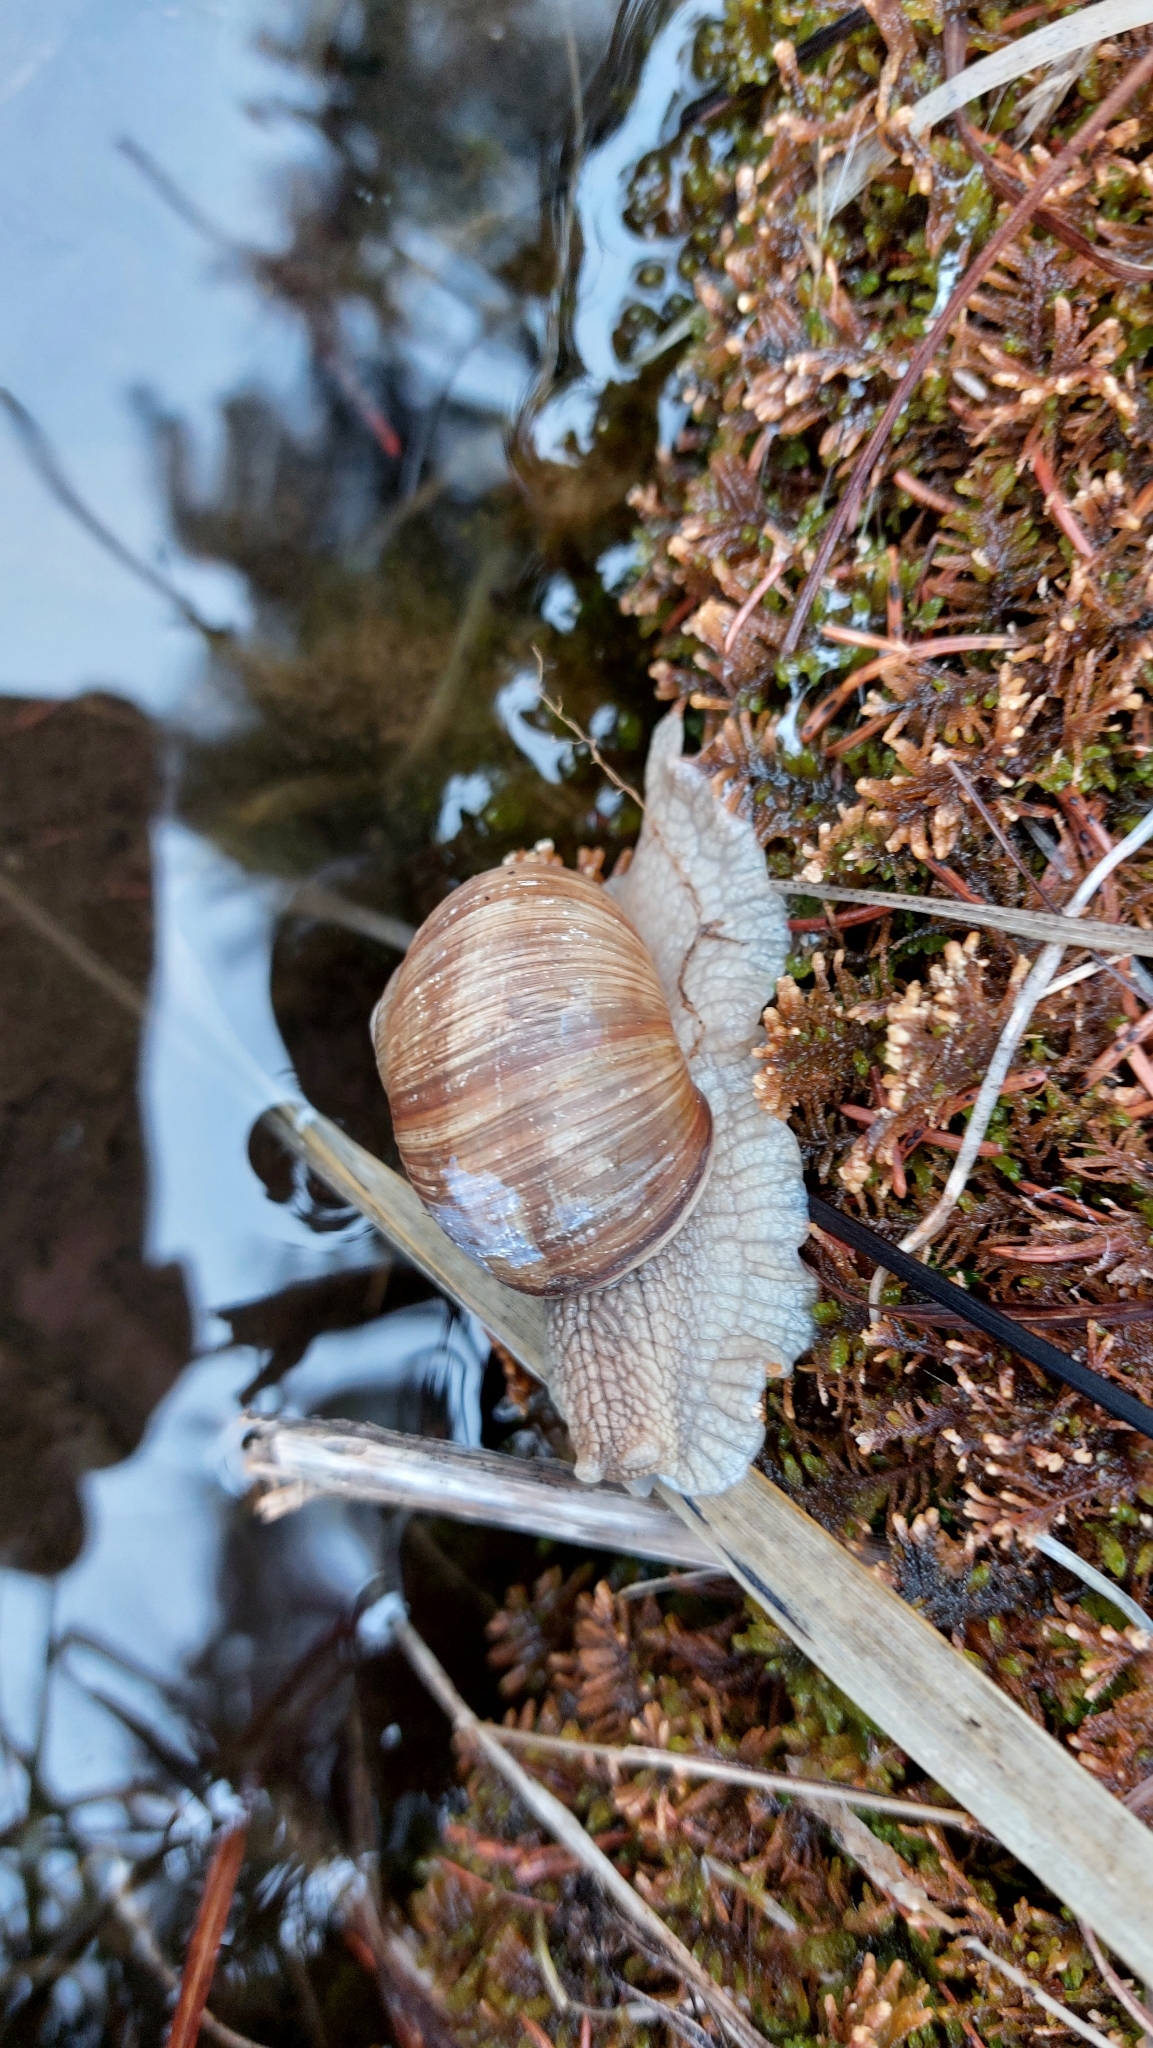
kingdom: Animalia
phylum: Mollusca
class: Gastropoda
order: Stylommatophora
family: Helicidae
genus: Helix
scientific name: Helix pomatia
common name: Roman snail
